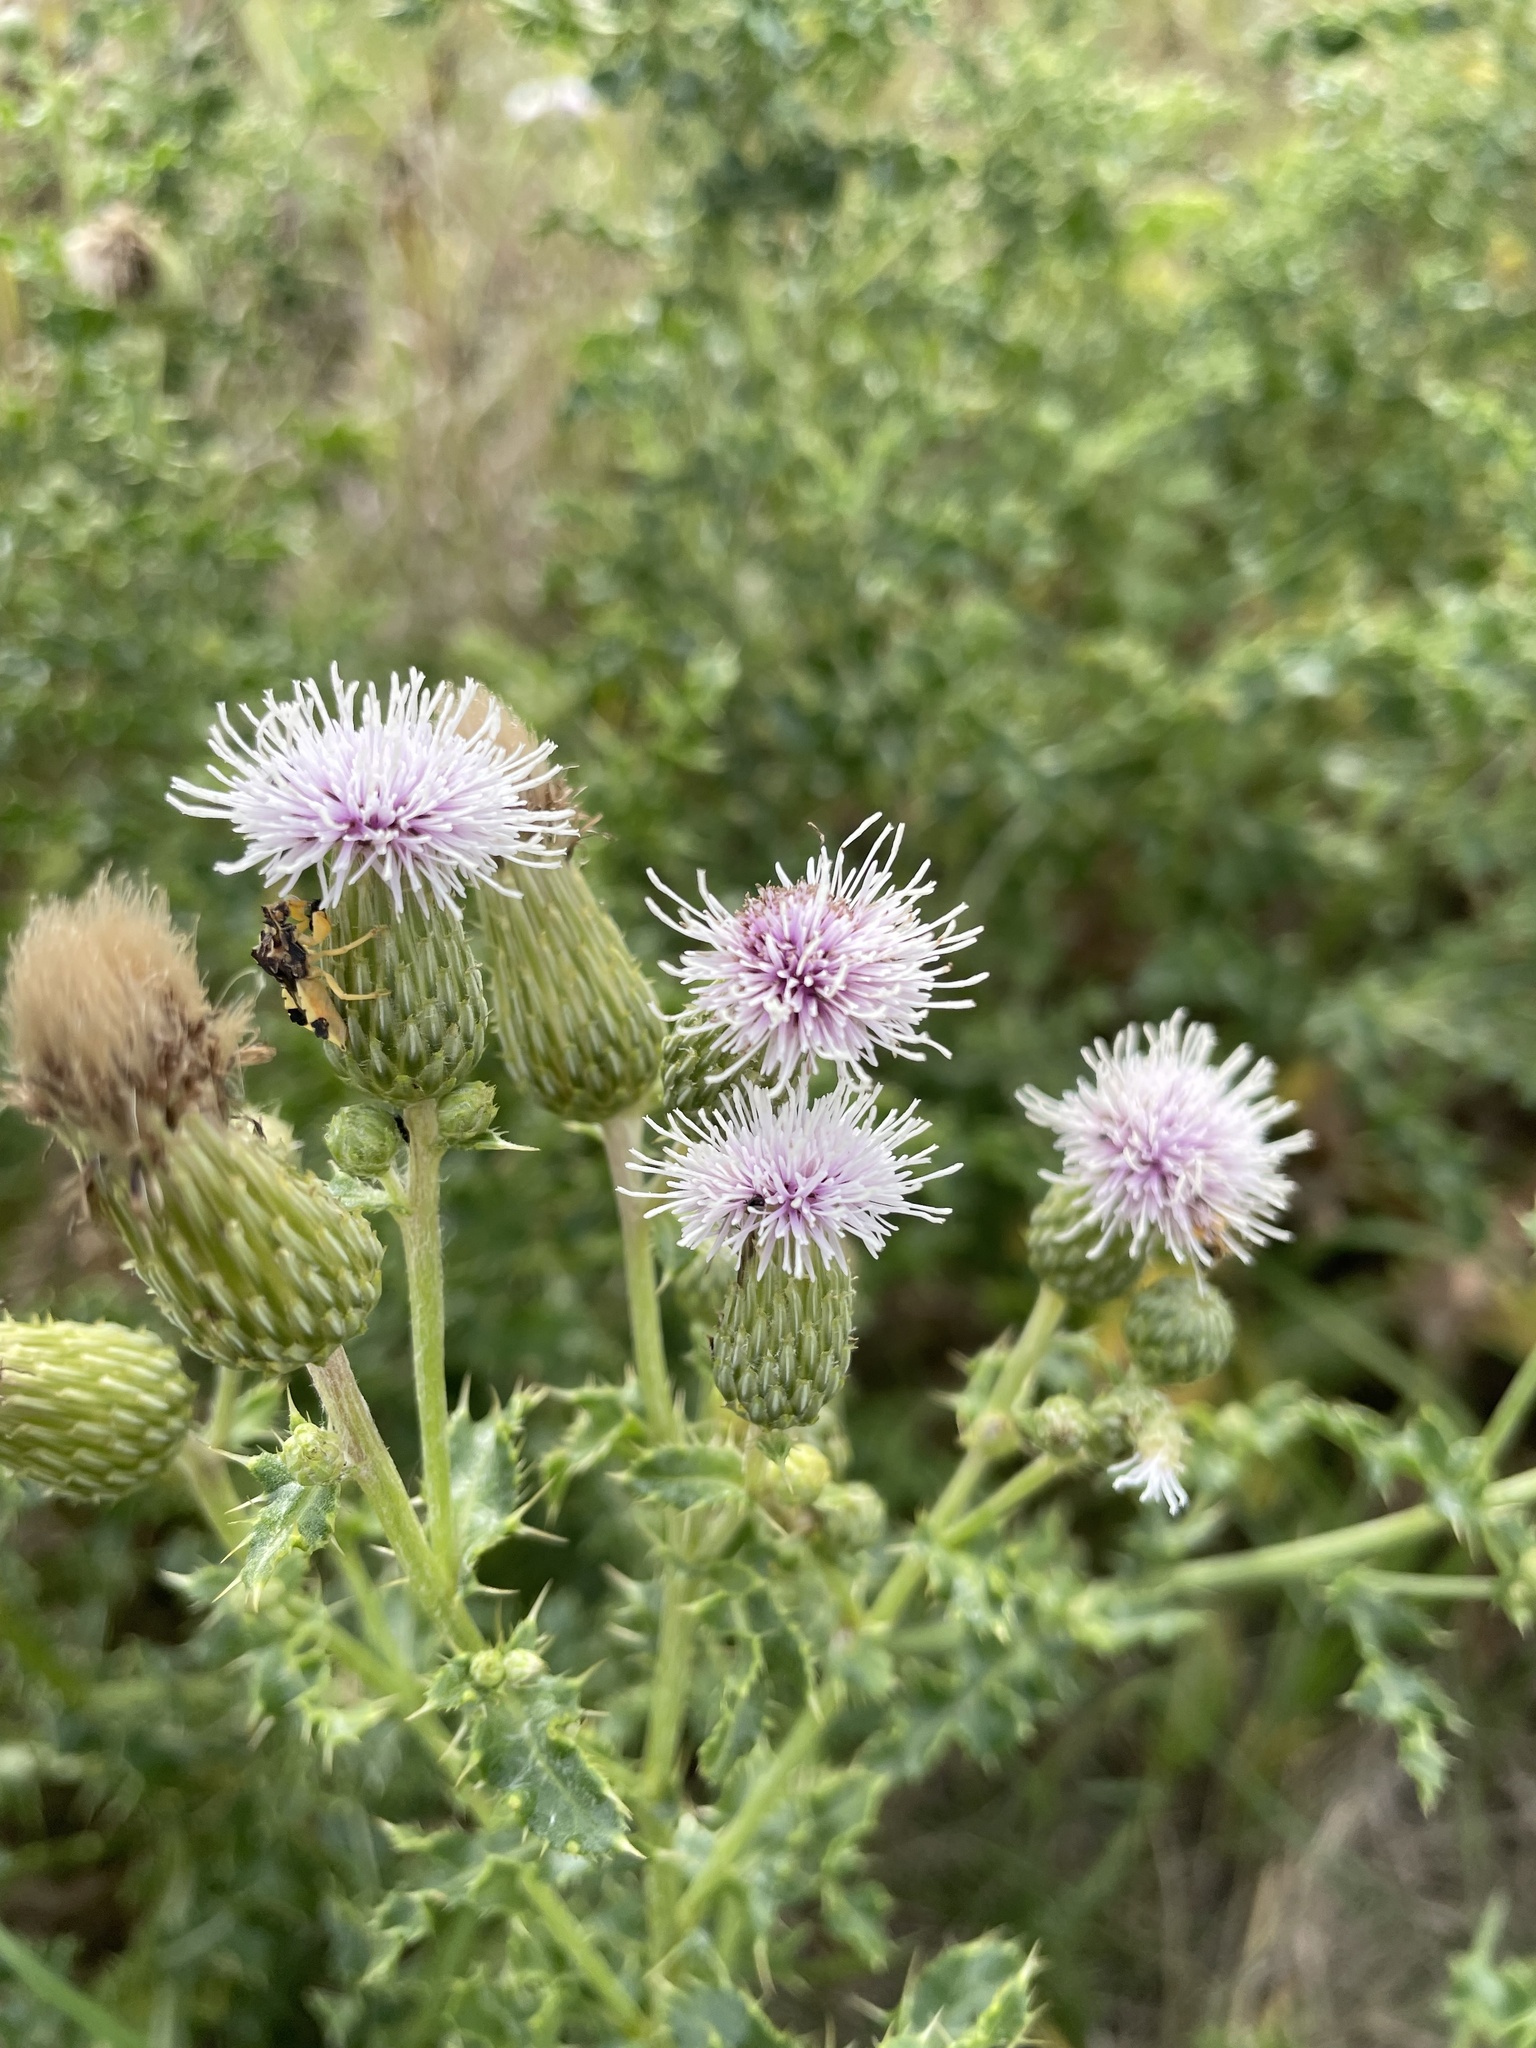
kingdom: Plantae
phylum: Tracheophyta
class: Magnoliopsida
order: Asterales
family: Asteraceae
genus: Cirsium
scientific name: Cirsium arvense
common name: Creeping thistle
